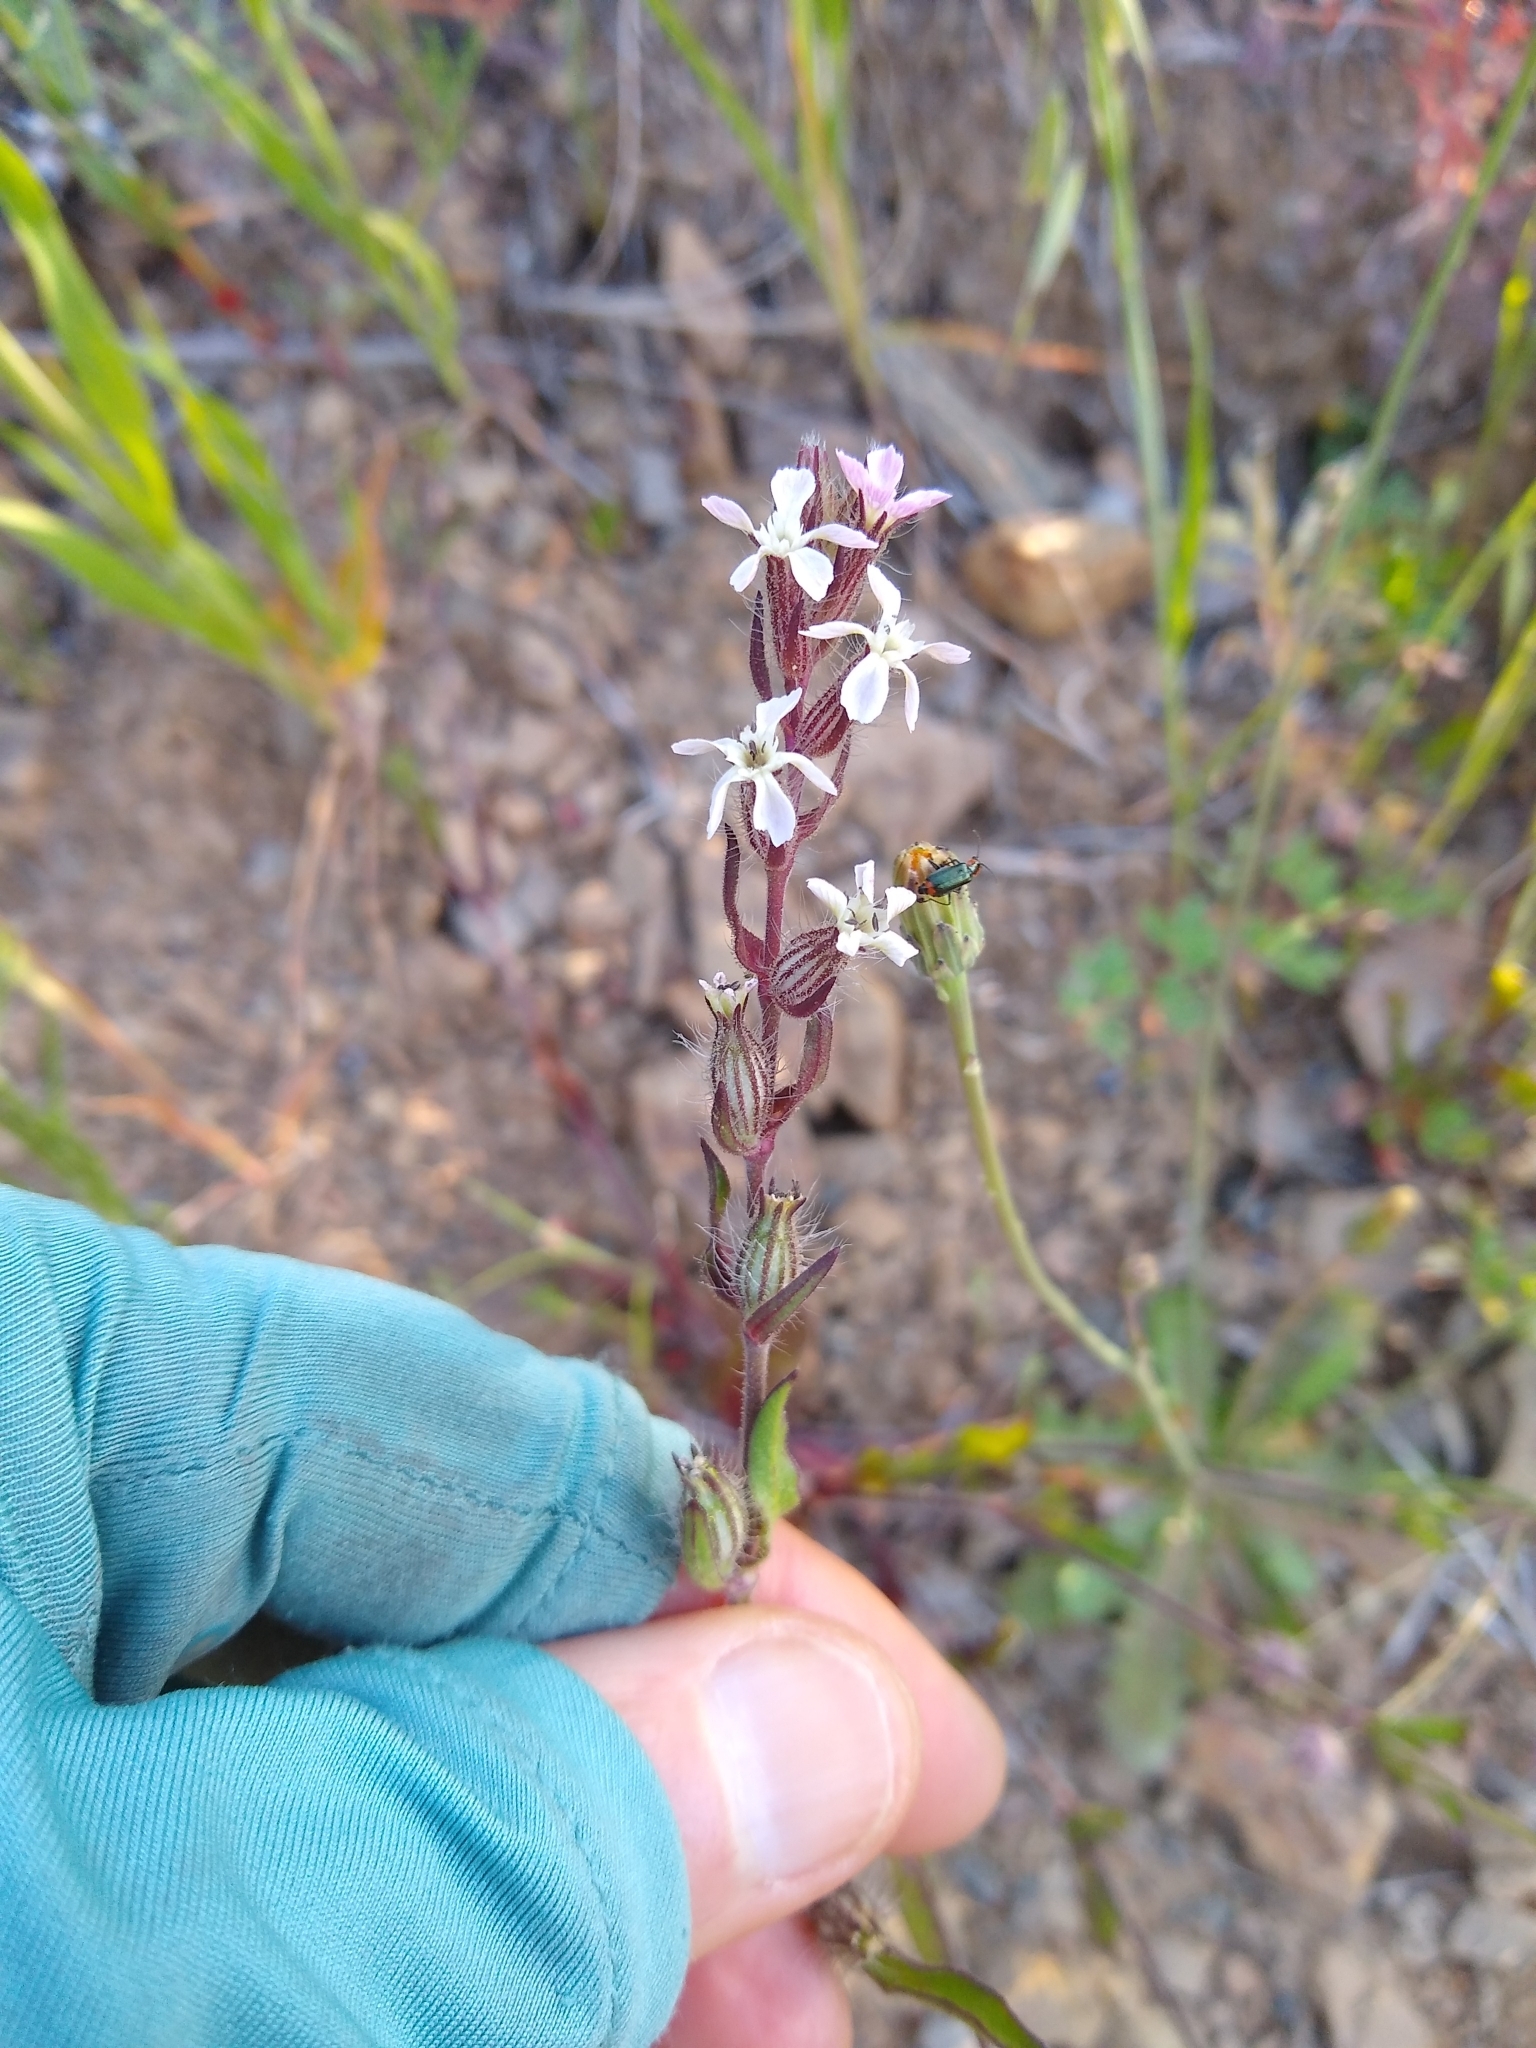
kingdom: Plantae
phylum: Tracheophyta
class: Magnoliopsida
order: Caryophyllales
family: Caryophyllaceae
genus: Silene
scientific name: Silene gallica
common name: Small-flowered catchfly
